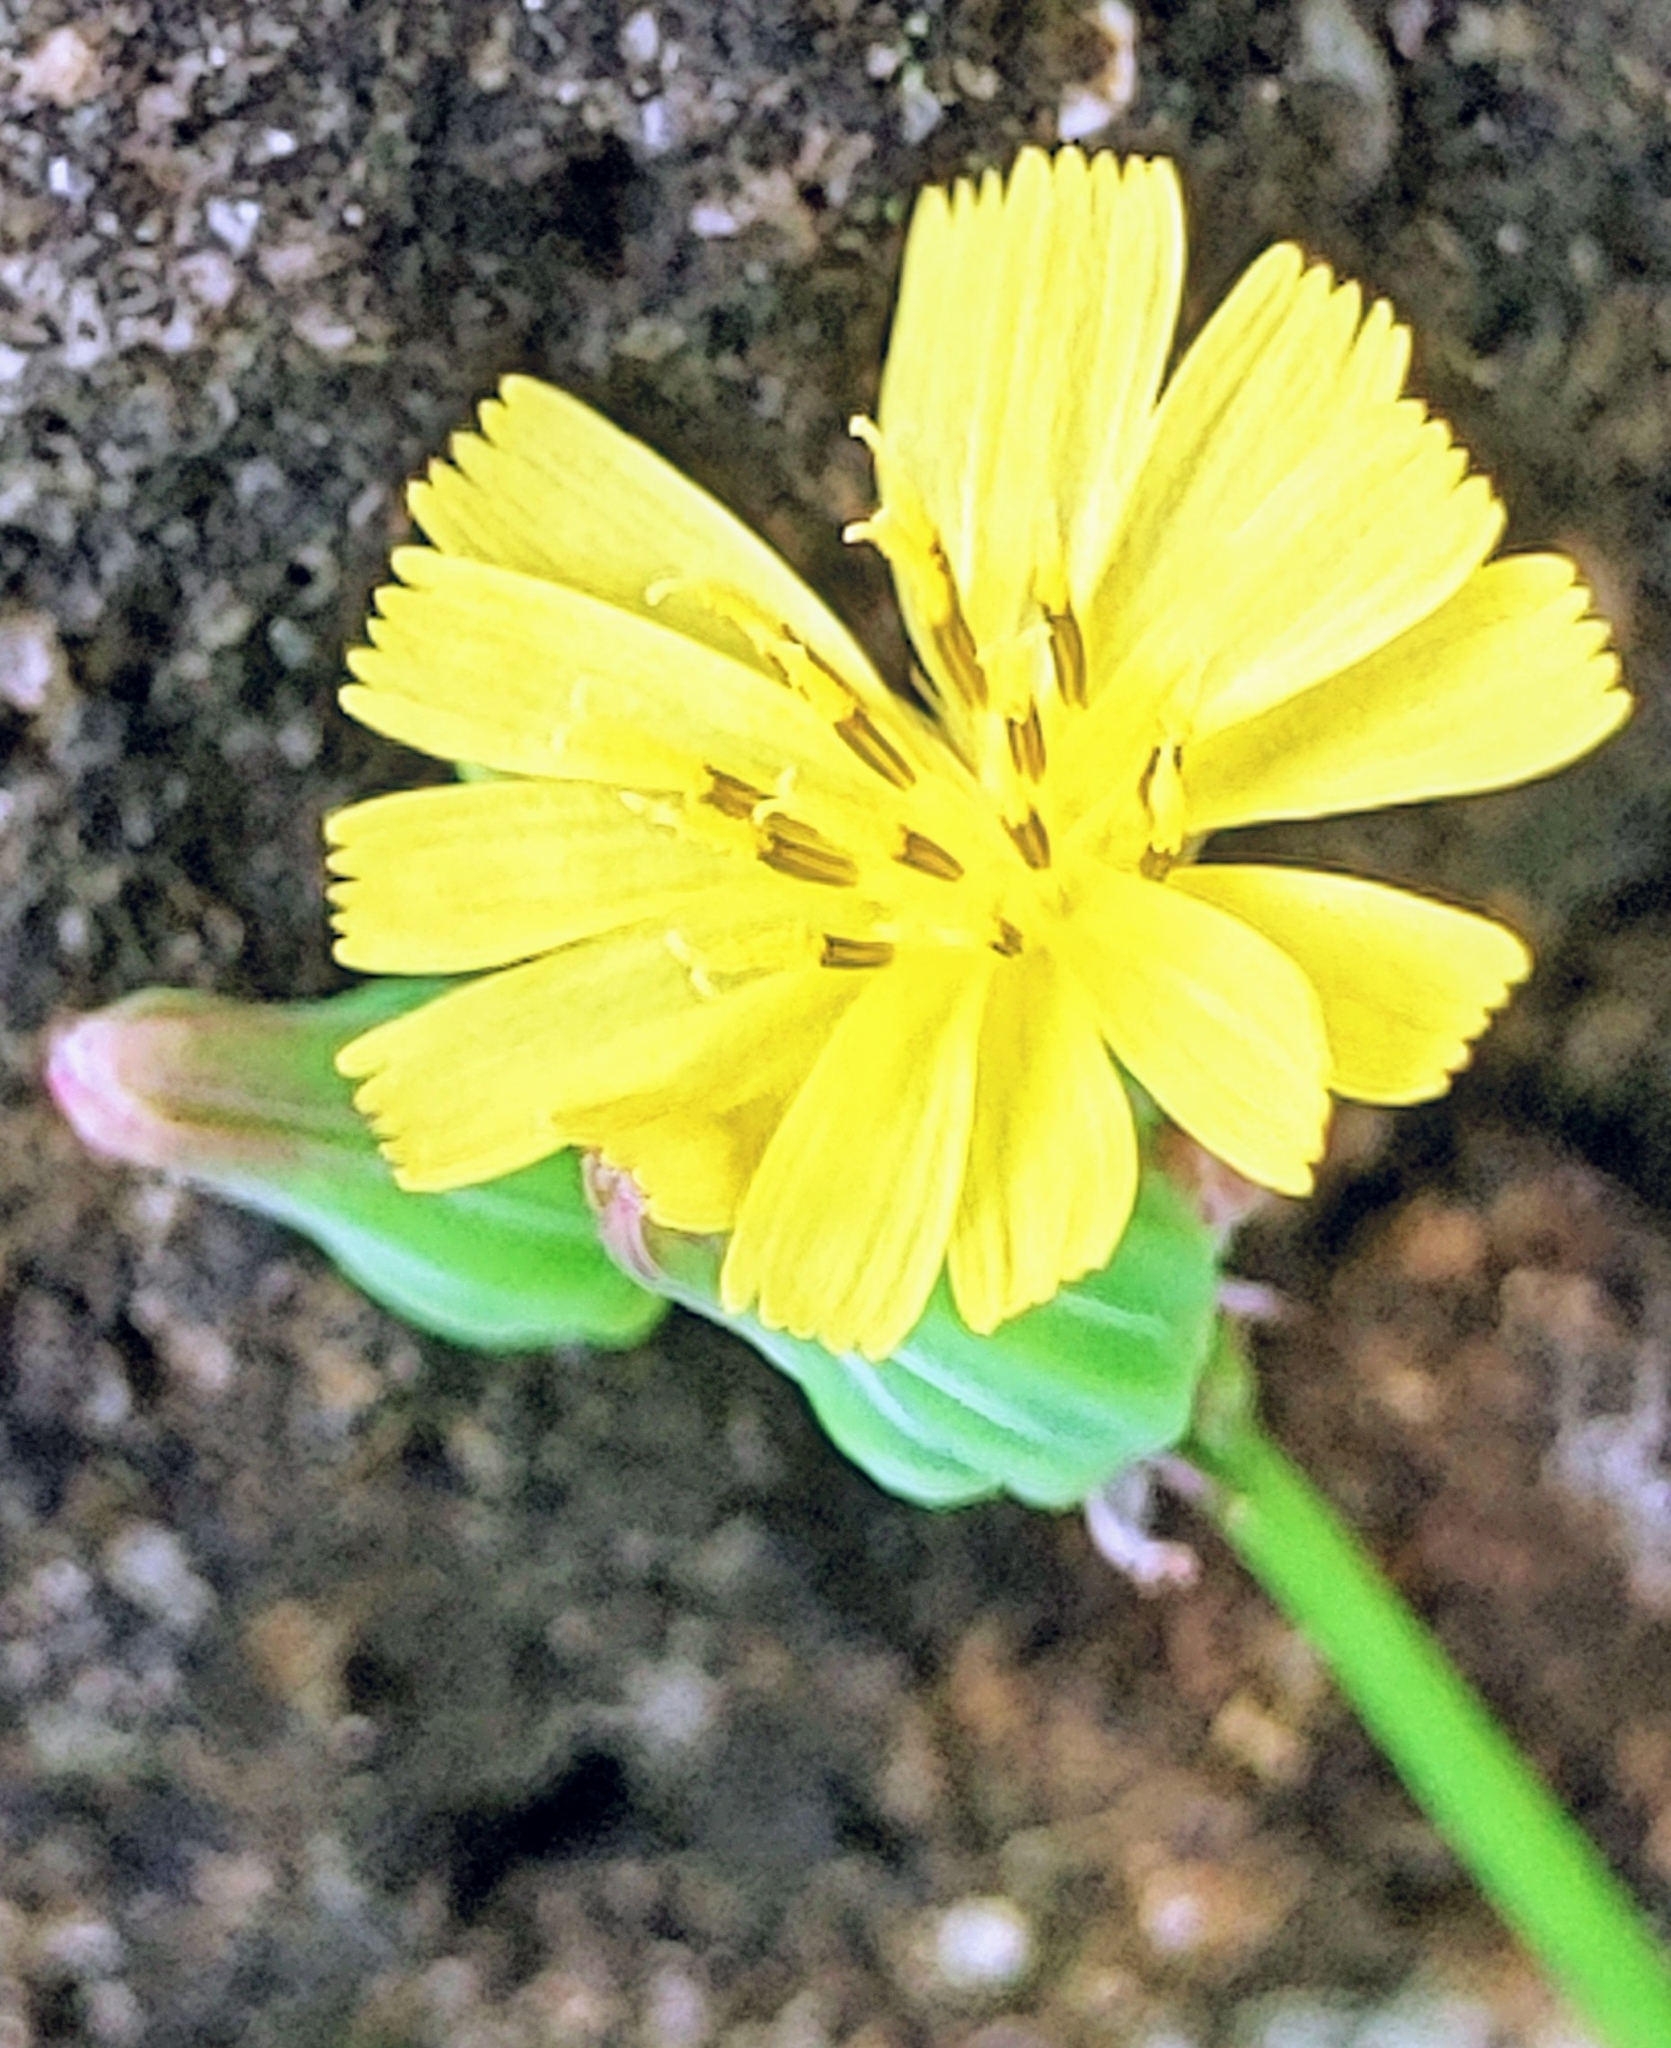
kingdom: Plantae
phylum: Tracheophyta
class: Magnoliopsida
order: Asterales
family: Asteraceae
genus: Youngia
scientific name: Youngia japonica
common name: Oriental false hawksbeard
